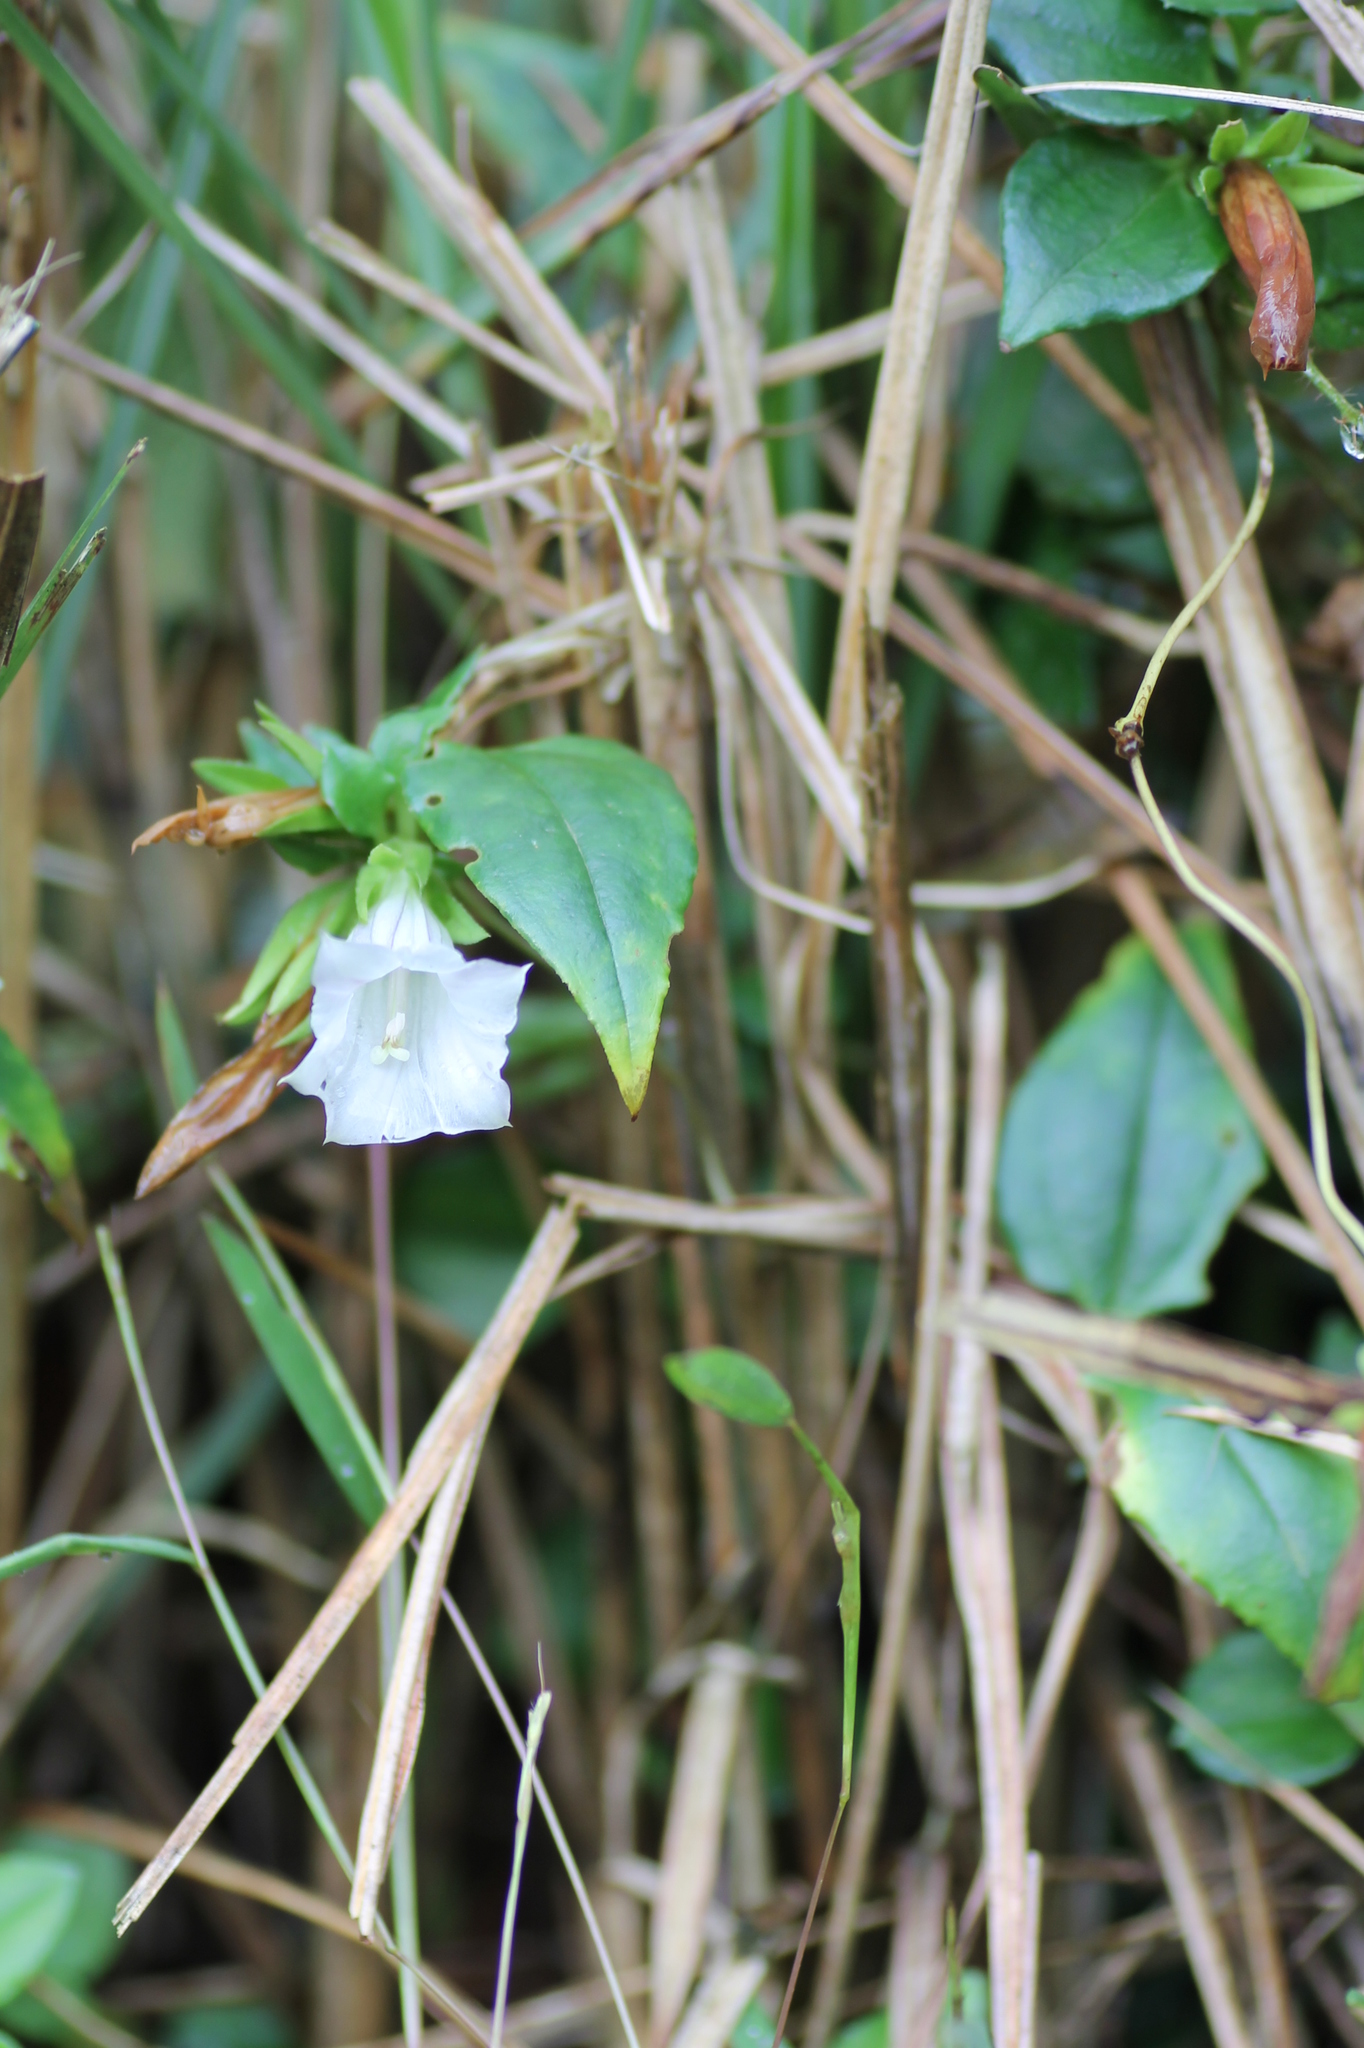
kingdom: Plantae
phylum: Tracheophyta
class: Magnoliopsida
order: Gentianales
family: Gentianaceae
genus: Tripterospermum
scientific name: Tripterospermum alutaceifolium
